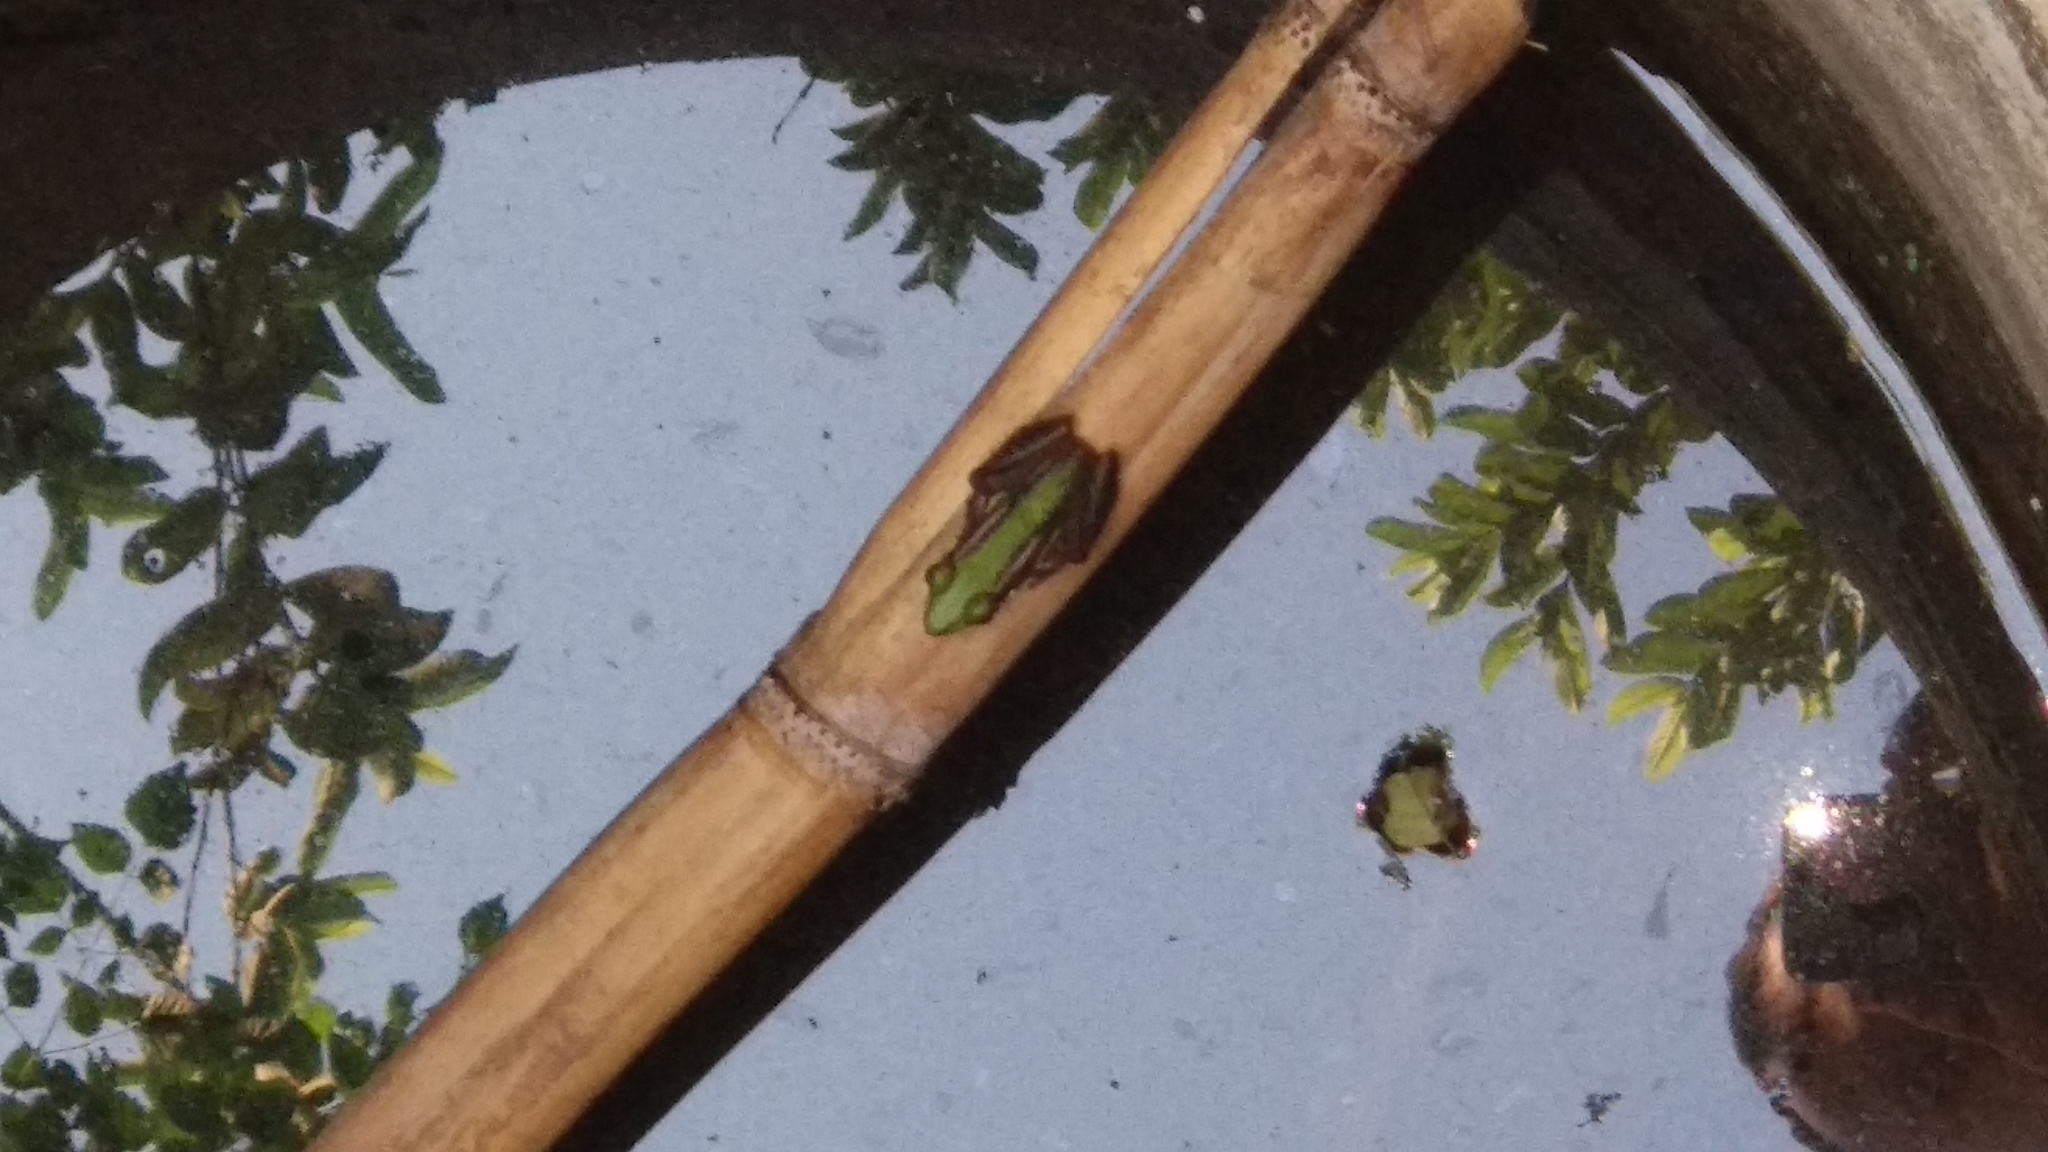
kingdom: Animalia
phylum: Chordata
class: Amphibia
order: Anura
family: Ranidae
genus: Hylarana
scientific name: Hylarana erythraea
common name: Common green frog/green paddy frog/leaf frog
